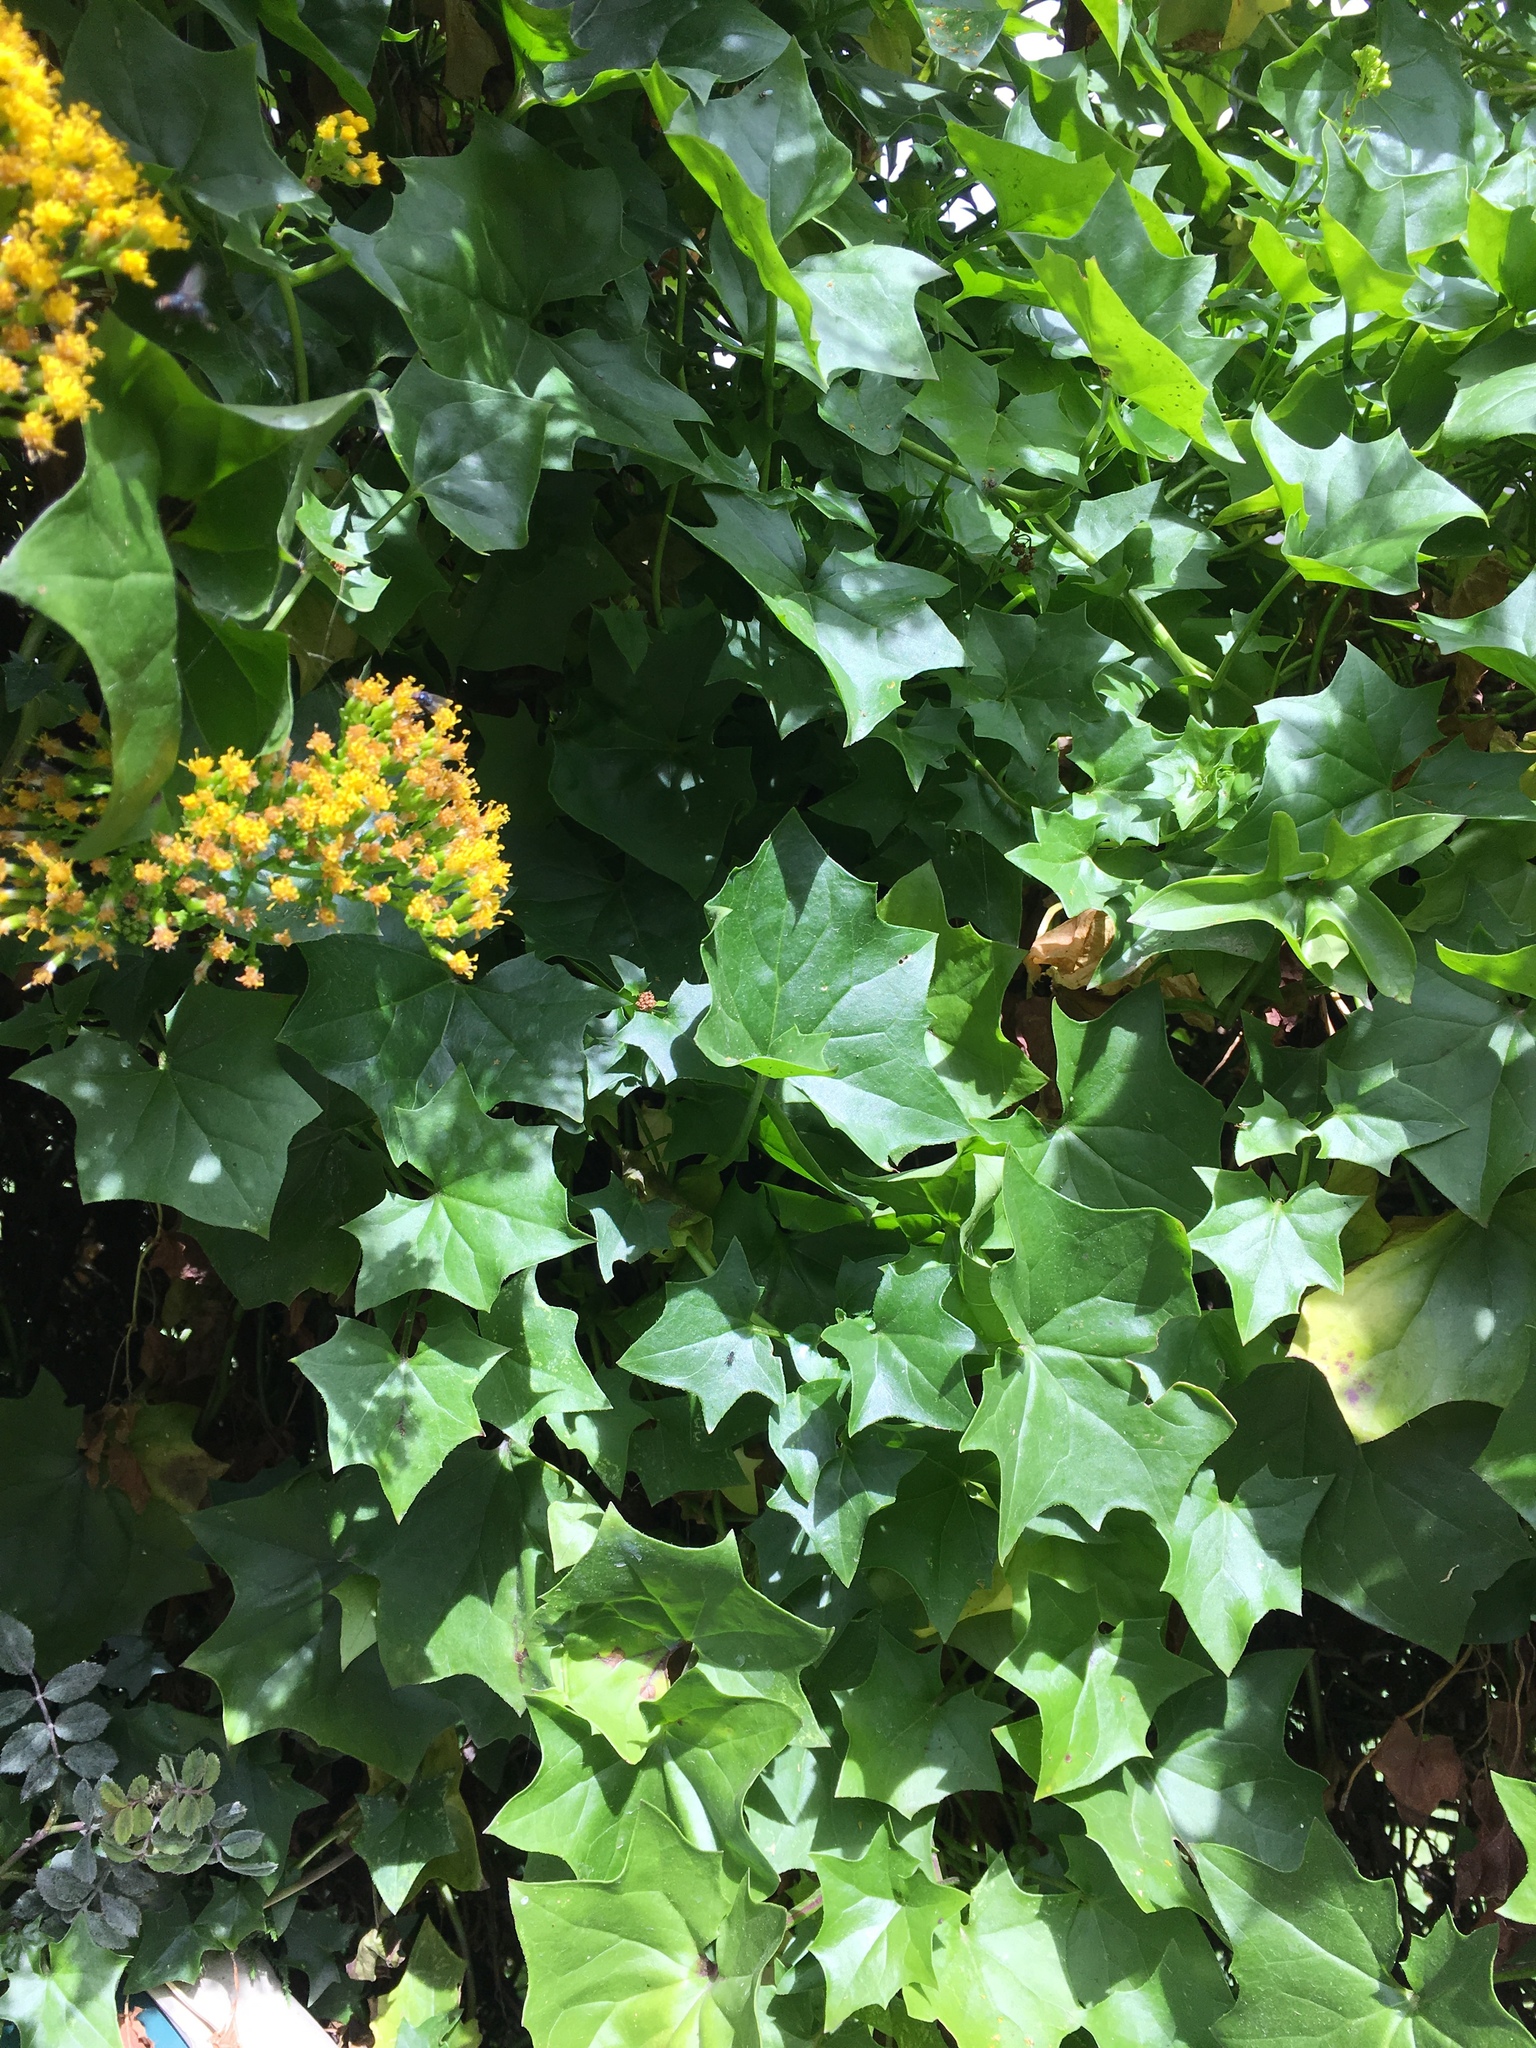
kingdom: Plantae
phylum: Tracheophyta
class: Magnoliopsida
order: Asterales
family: Asteraceae
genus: Delairea
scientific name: Delairea odorata
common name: Cape-ivy
